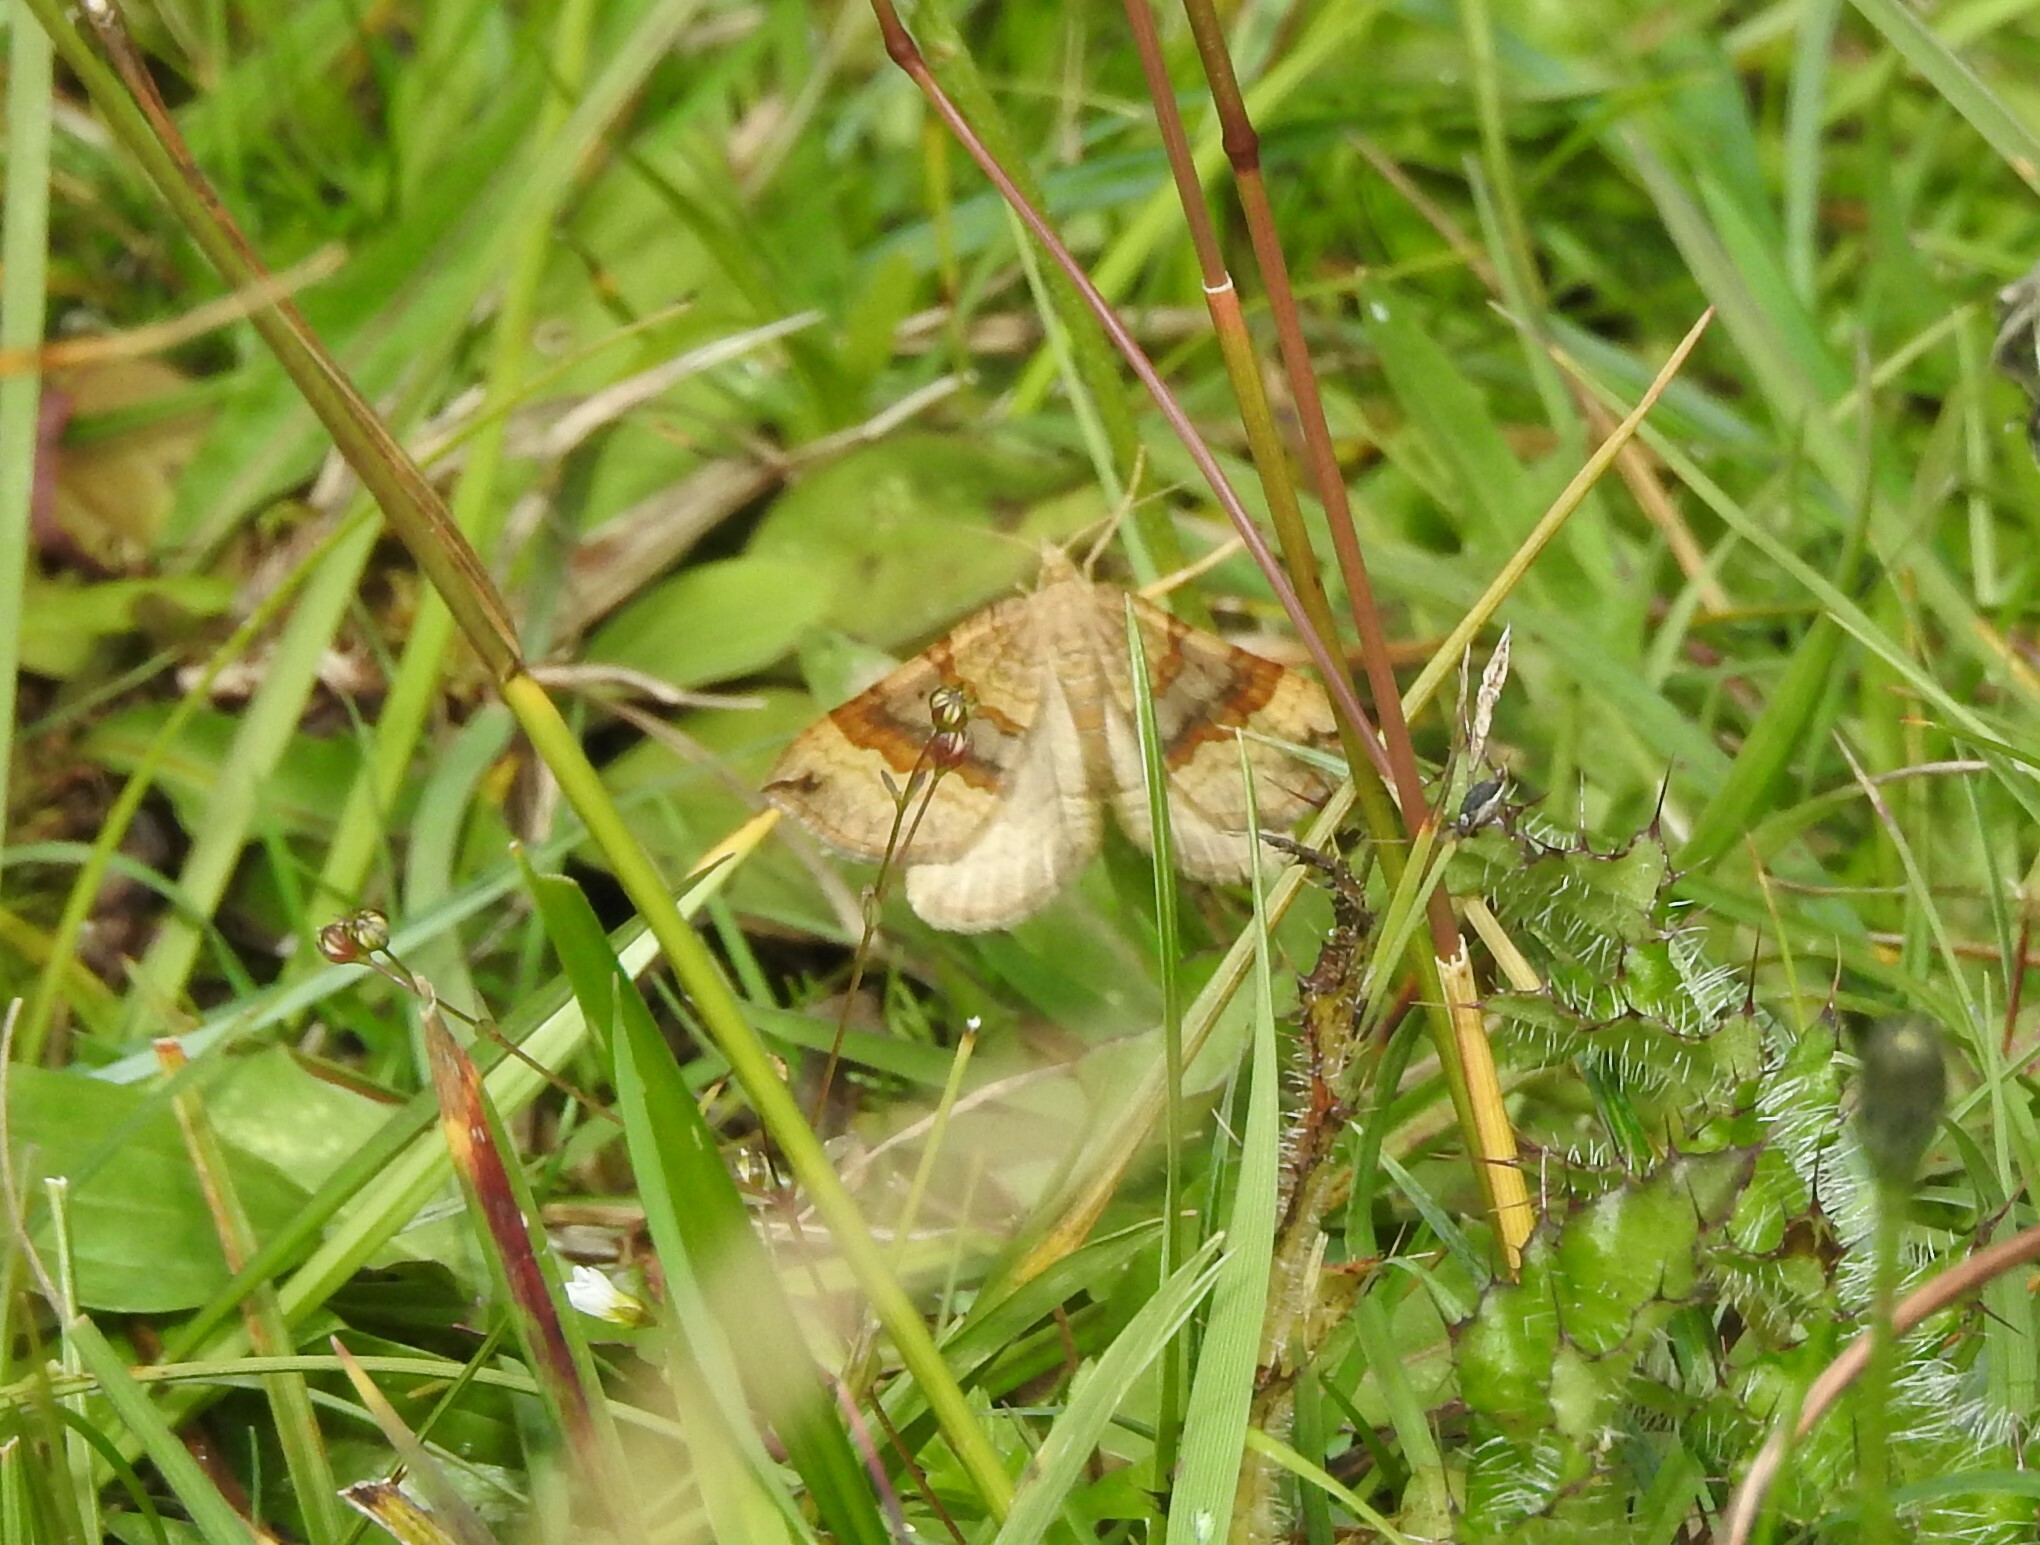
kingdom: Animalia
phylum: Arthropoda
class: Insecta
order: Lepidoptera
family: Geometridae
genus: Scotopteryx
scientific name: Scotopteryx chenopodiata
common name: Shaded broad-bar
